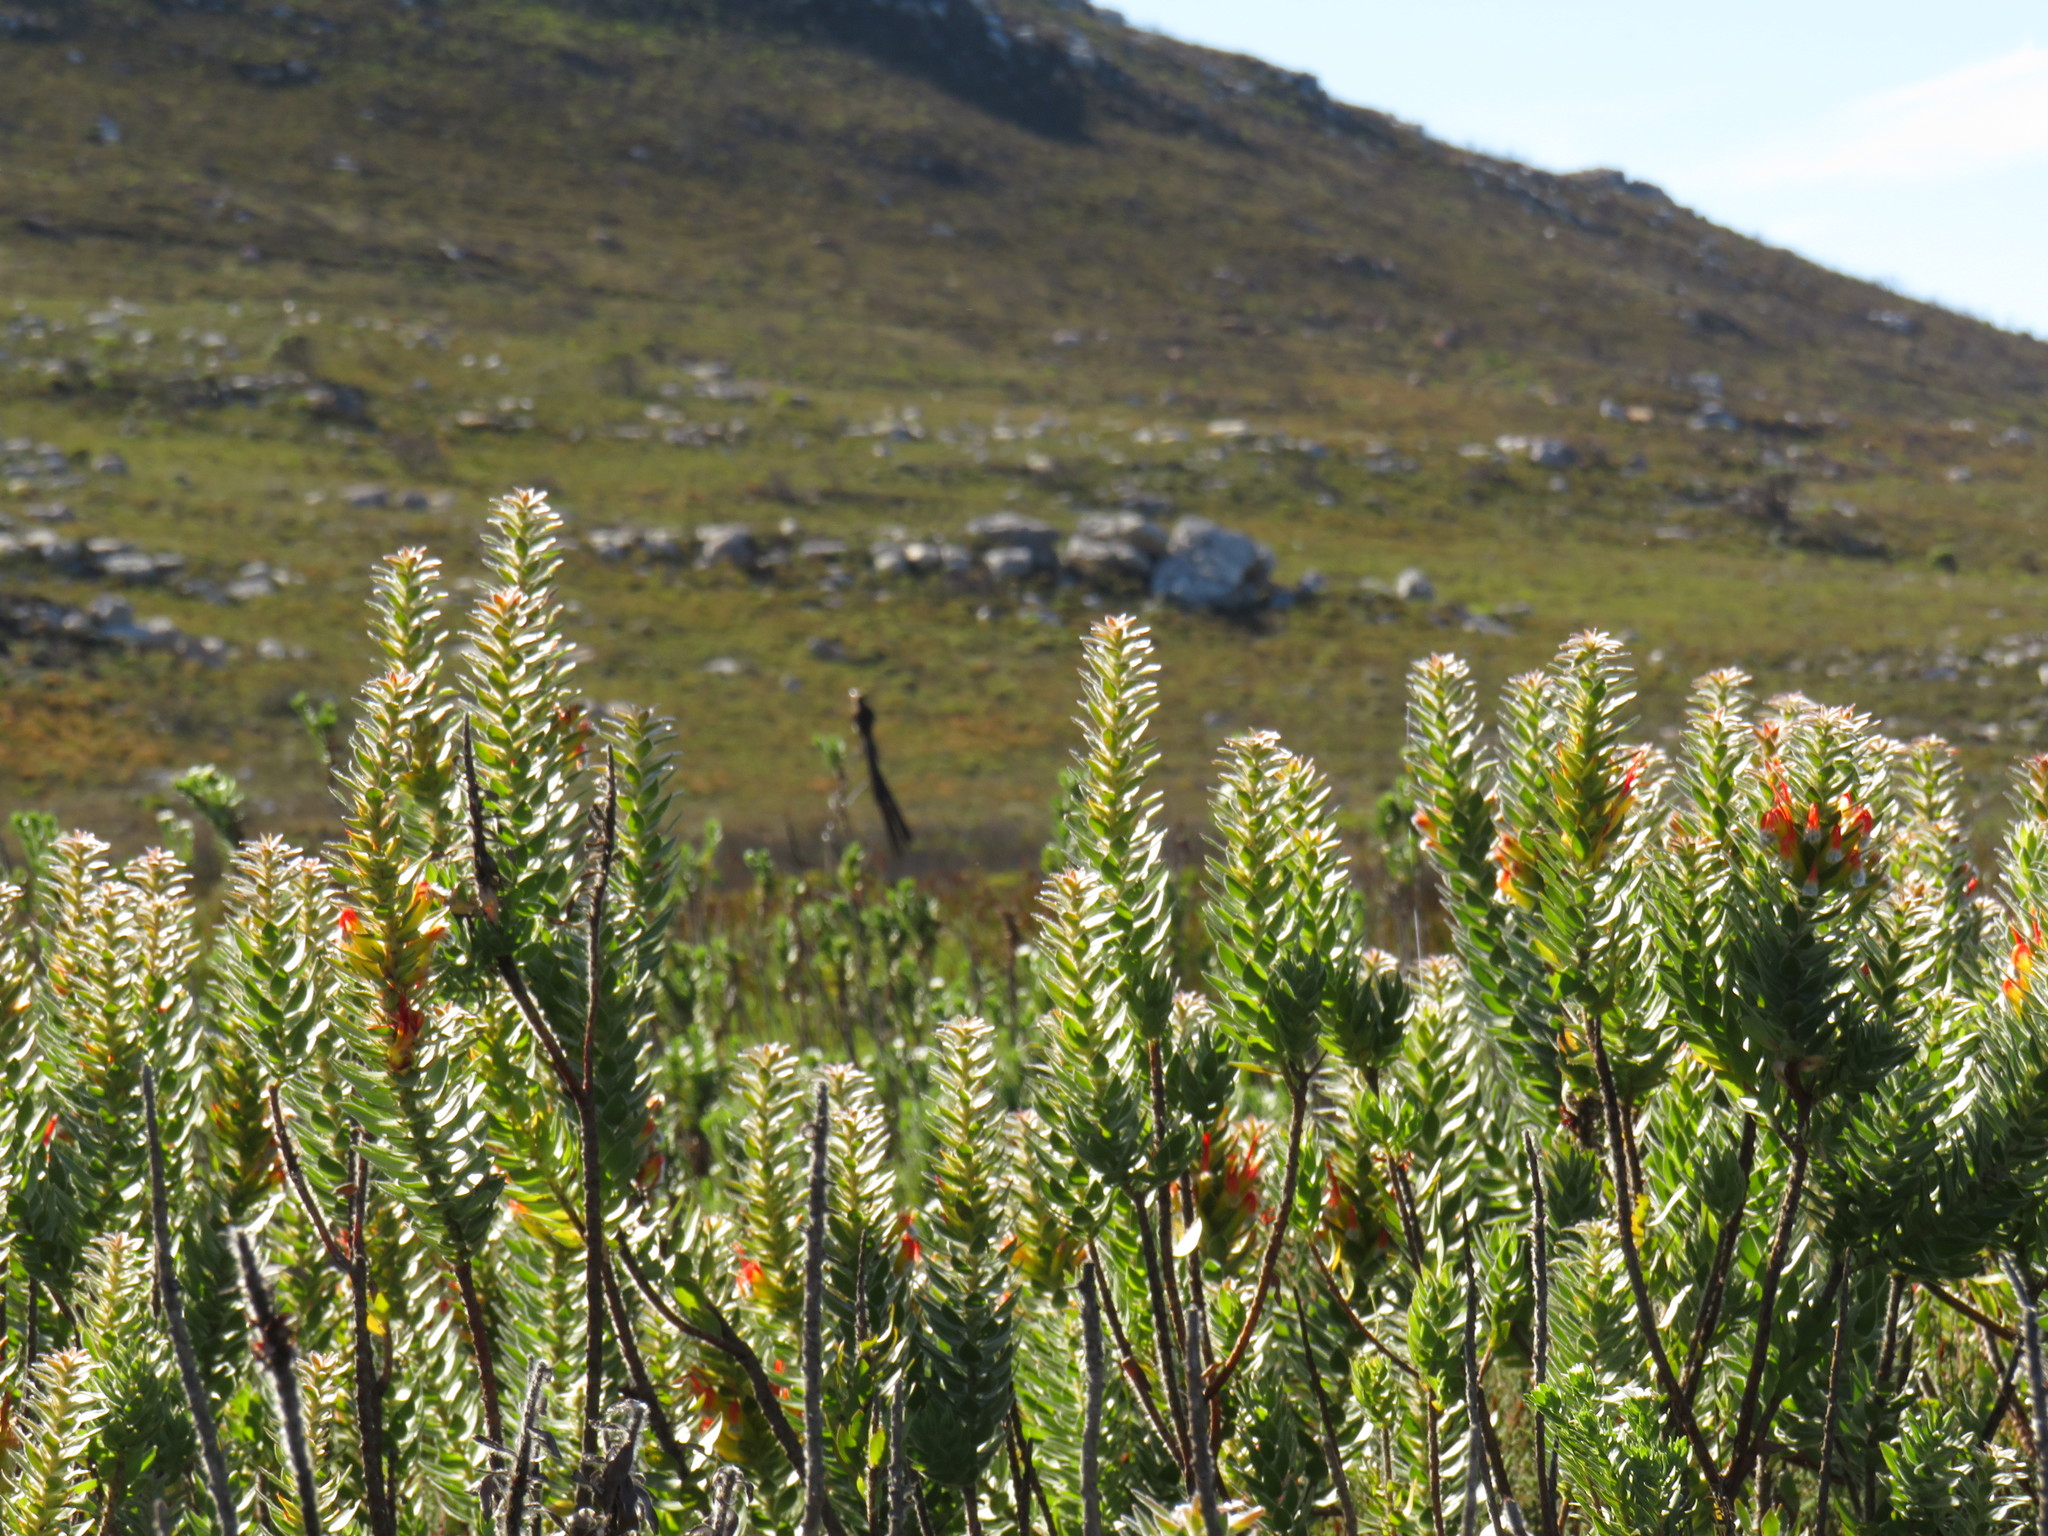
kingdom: Plantae
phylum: Tracheophyta
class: Magnoliopsida
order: Proteales
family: Proteaceae
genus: Mimetes
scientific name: Mimetes hirtus
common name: Marsh pagoda
